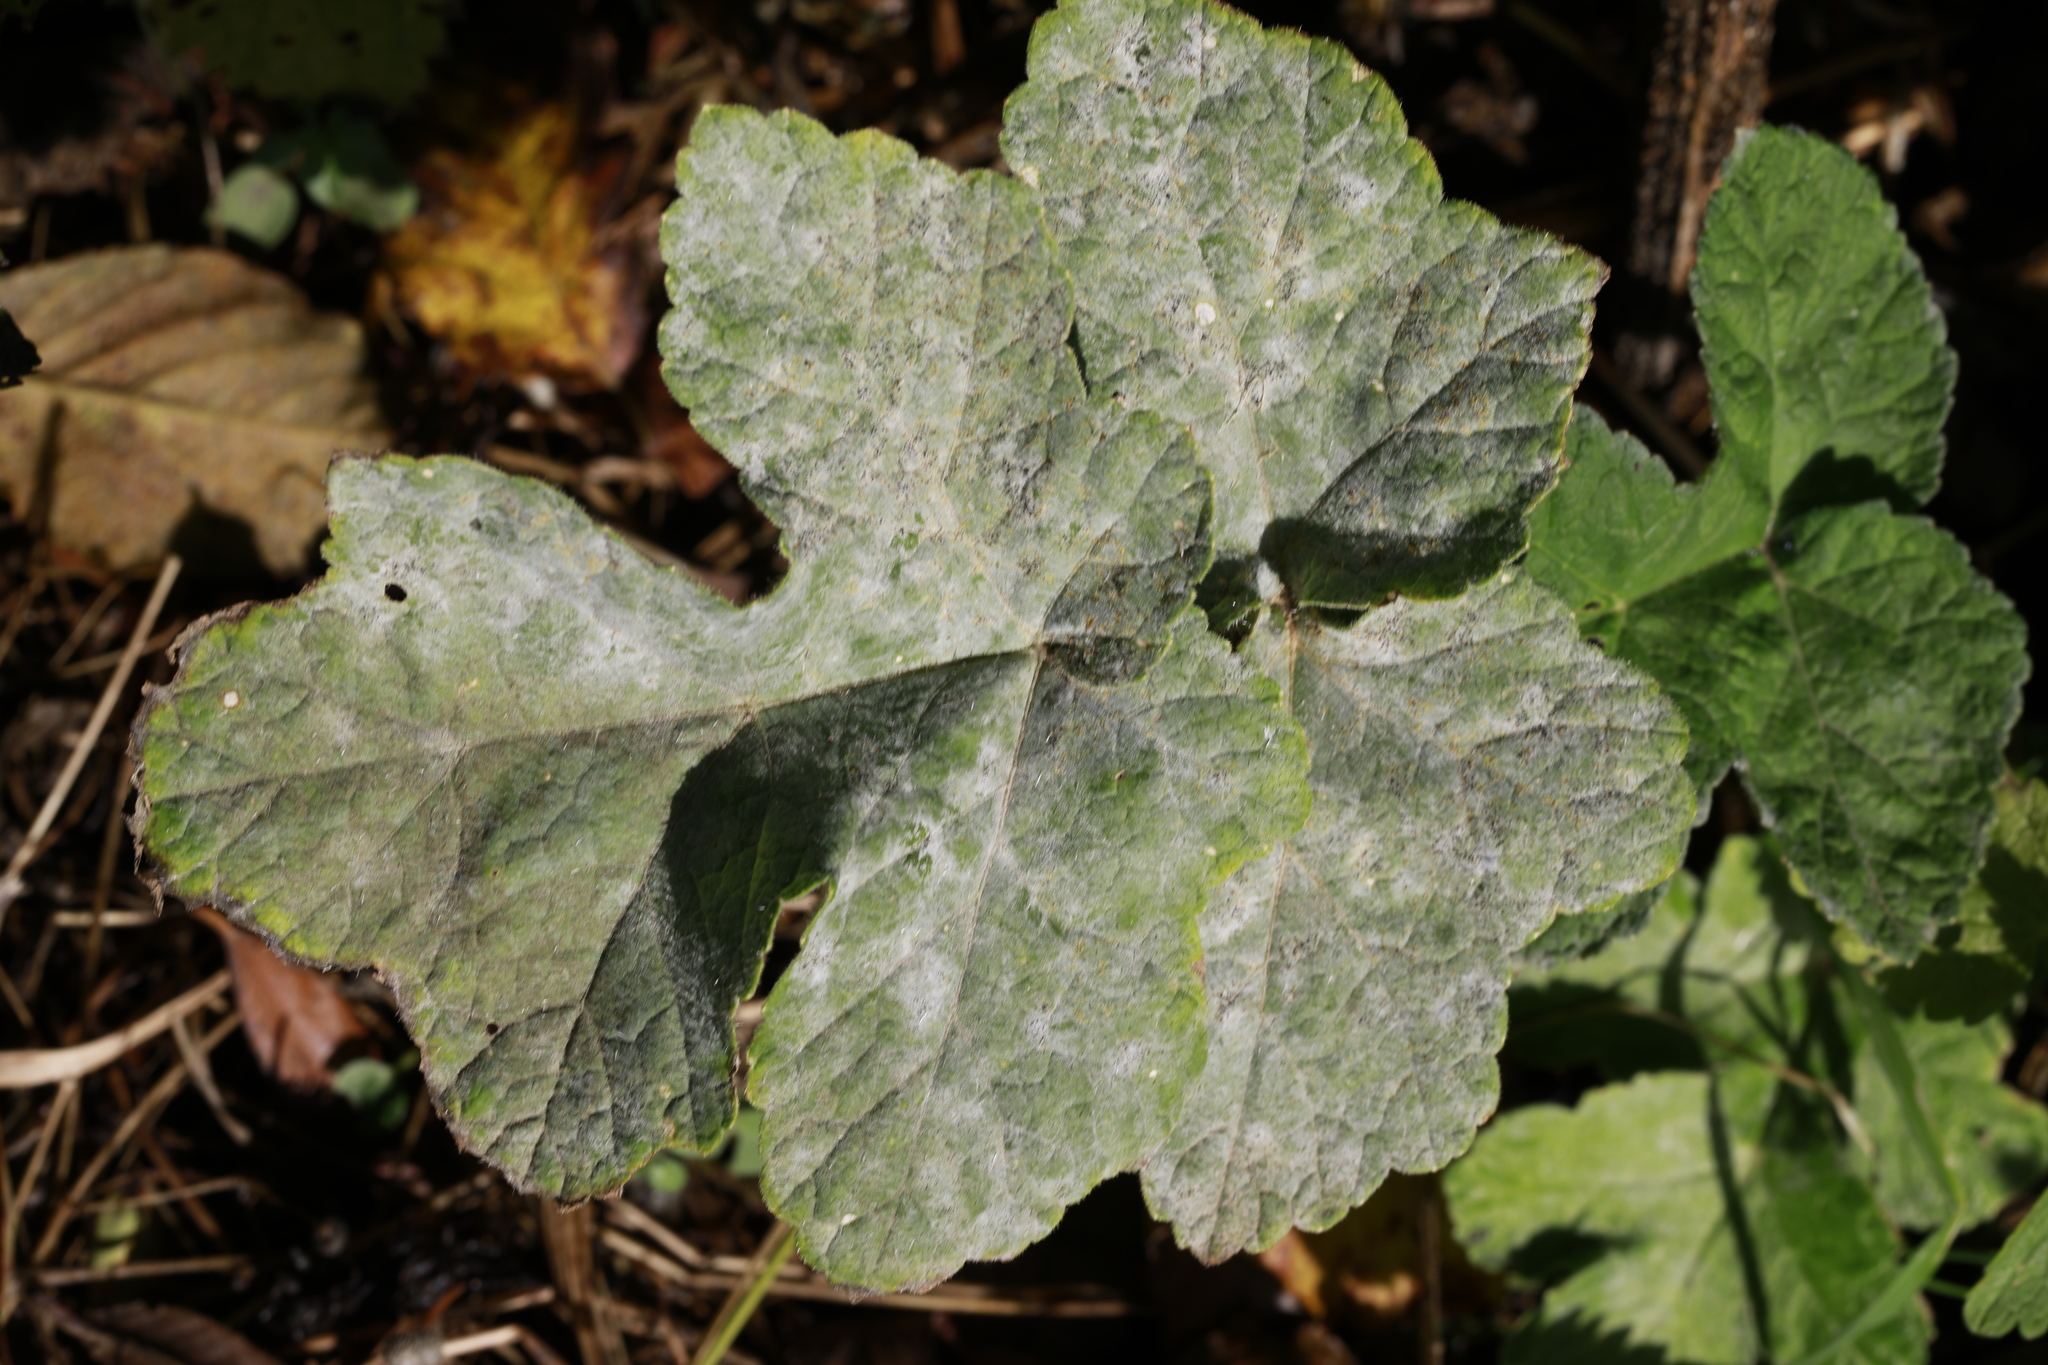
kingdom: Fungi
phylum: Ascomycota
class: Leotiomycetes
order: Helotiales
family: Erysiphaceae
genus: Erysiphe
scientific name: Erysiphe heraclei
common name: Umbellifer mildew
